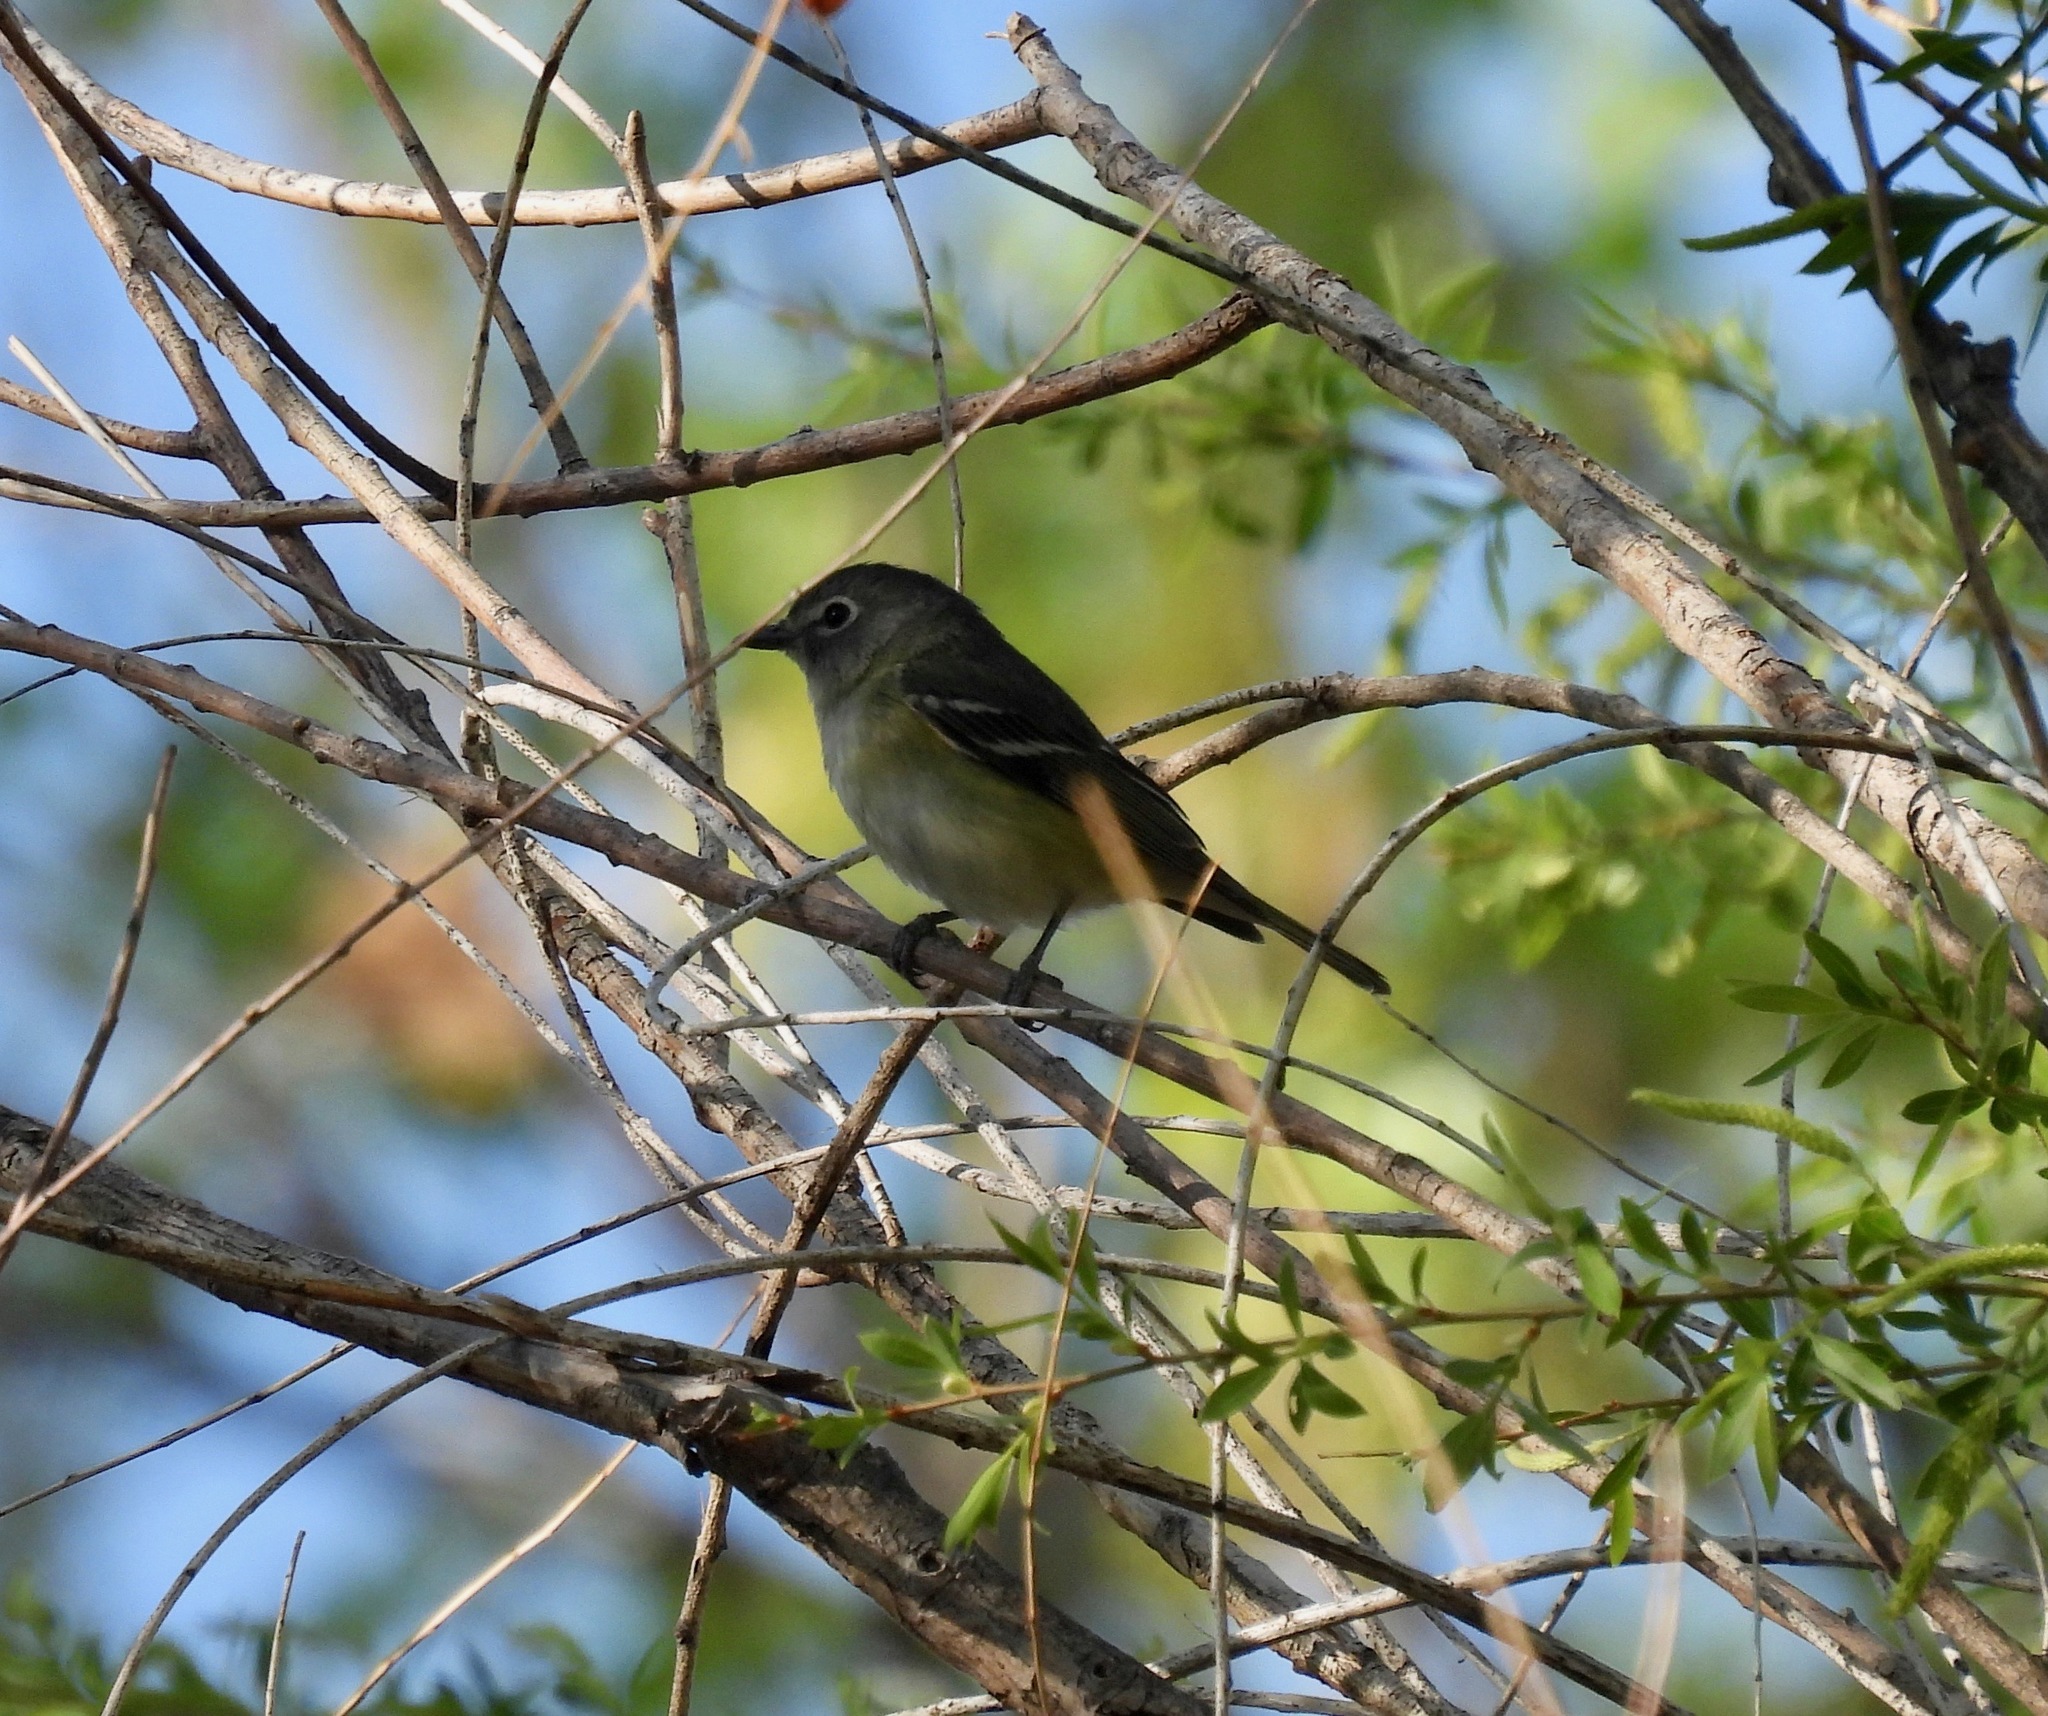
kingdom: Animalia
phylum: Chordata
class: Aves
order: Passeriformes
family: Vireonidae
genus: Vireo
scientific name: Vireo cassinii
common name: Cassin's vireo
